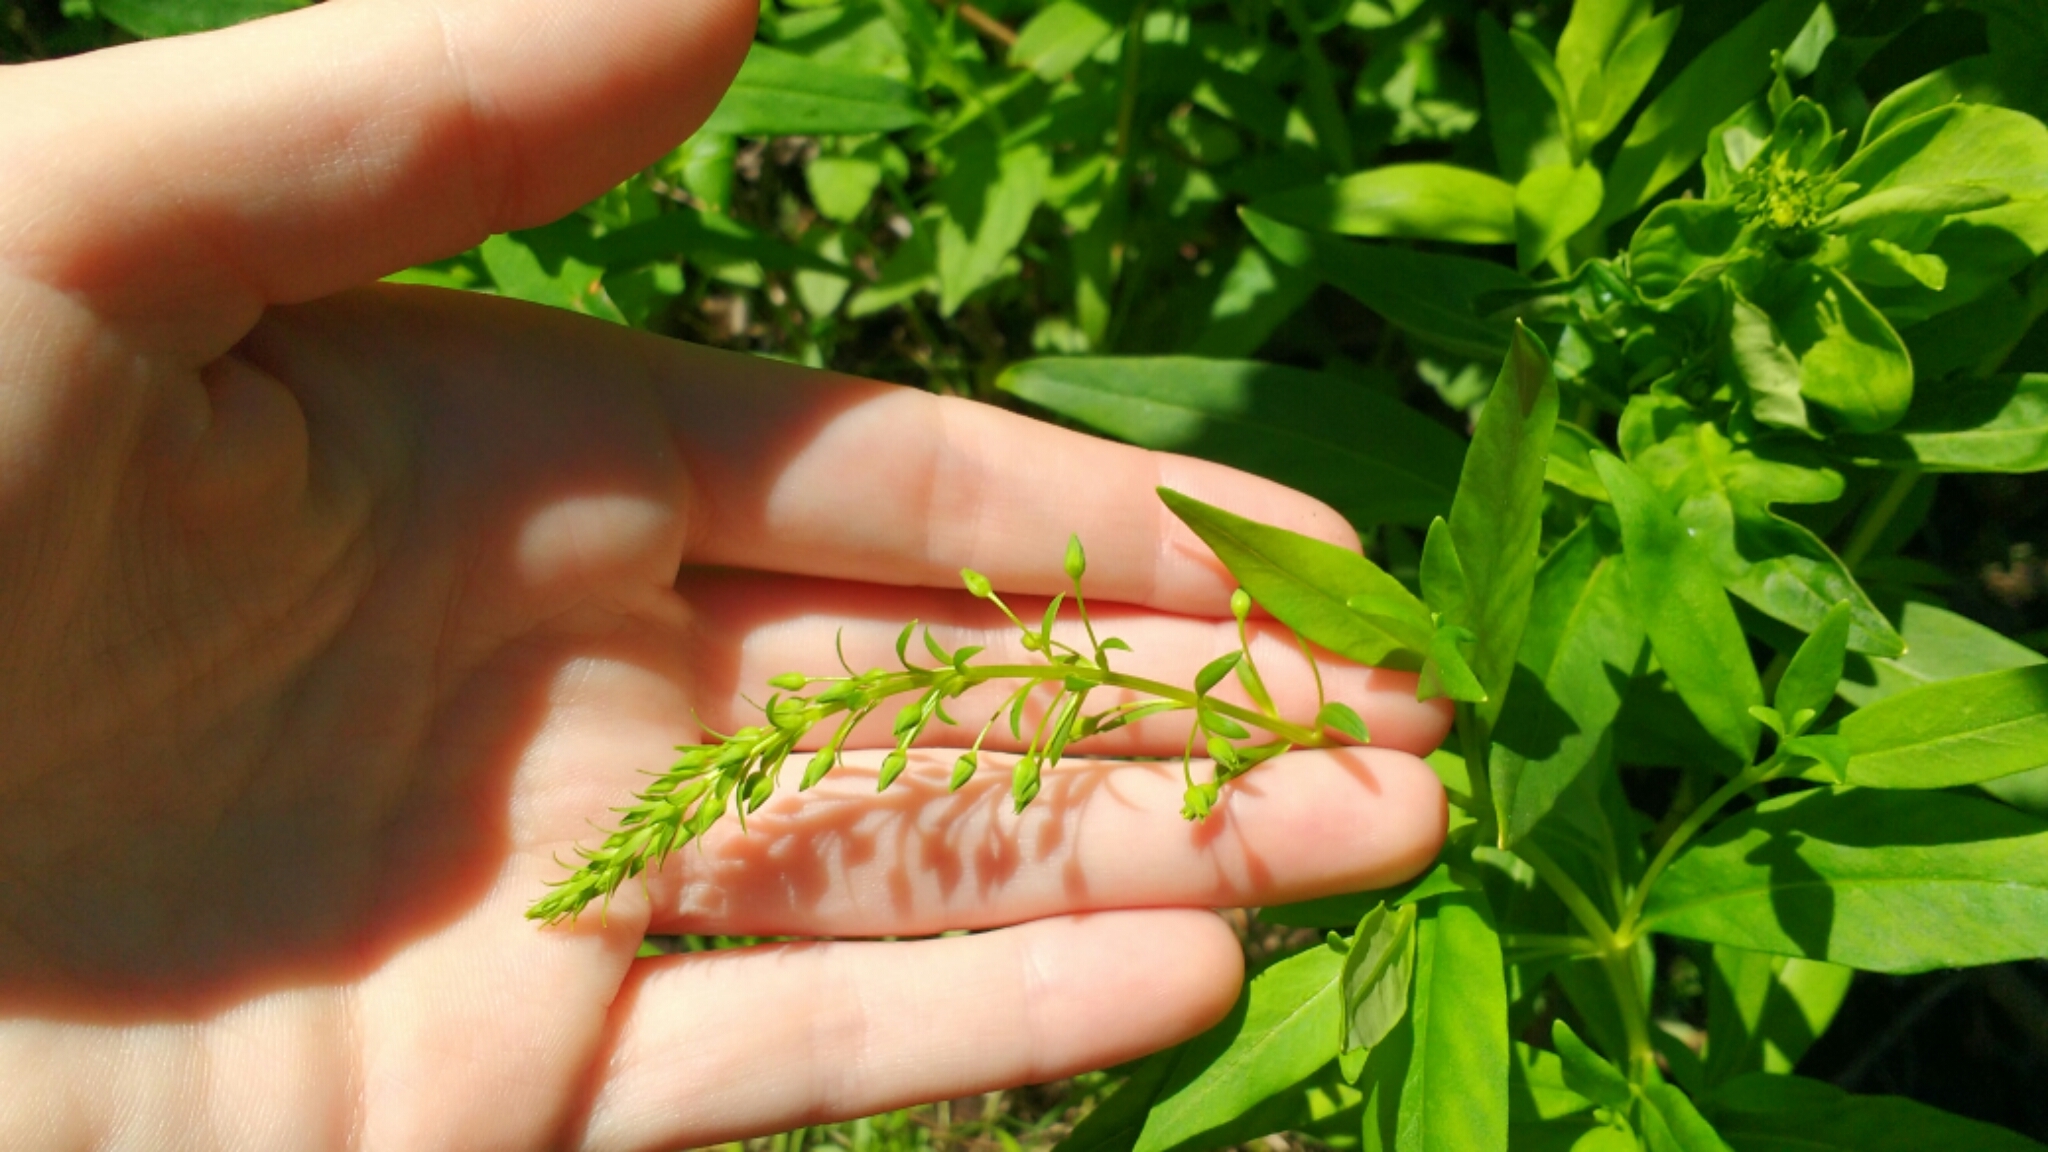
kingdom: Plantae
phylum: Tracheophyta
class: Magnoliopsida
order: Ericales
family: Primulaceae
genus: Lysimachia
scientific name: Lysimachia terrestris
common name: Lake loosestrife
